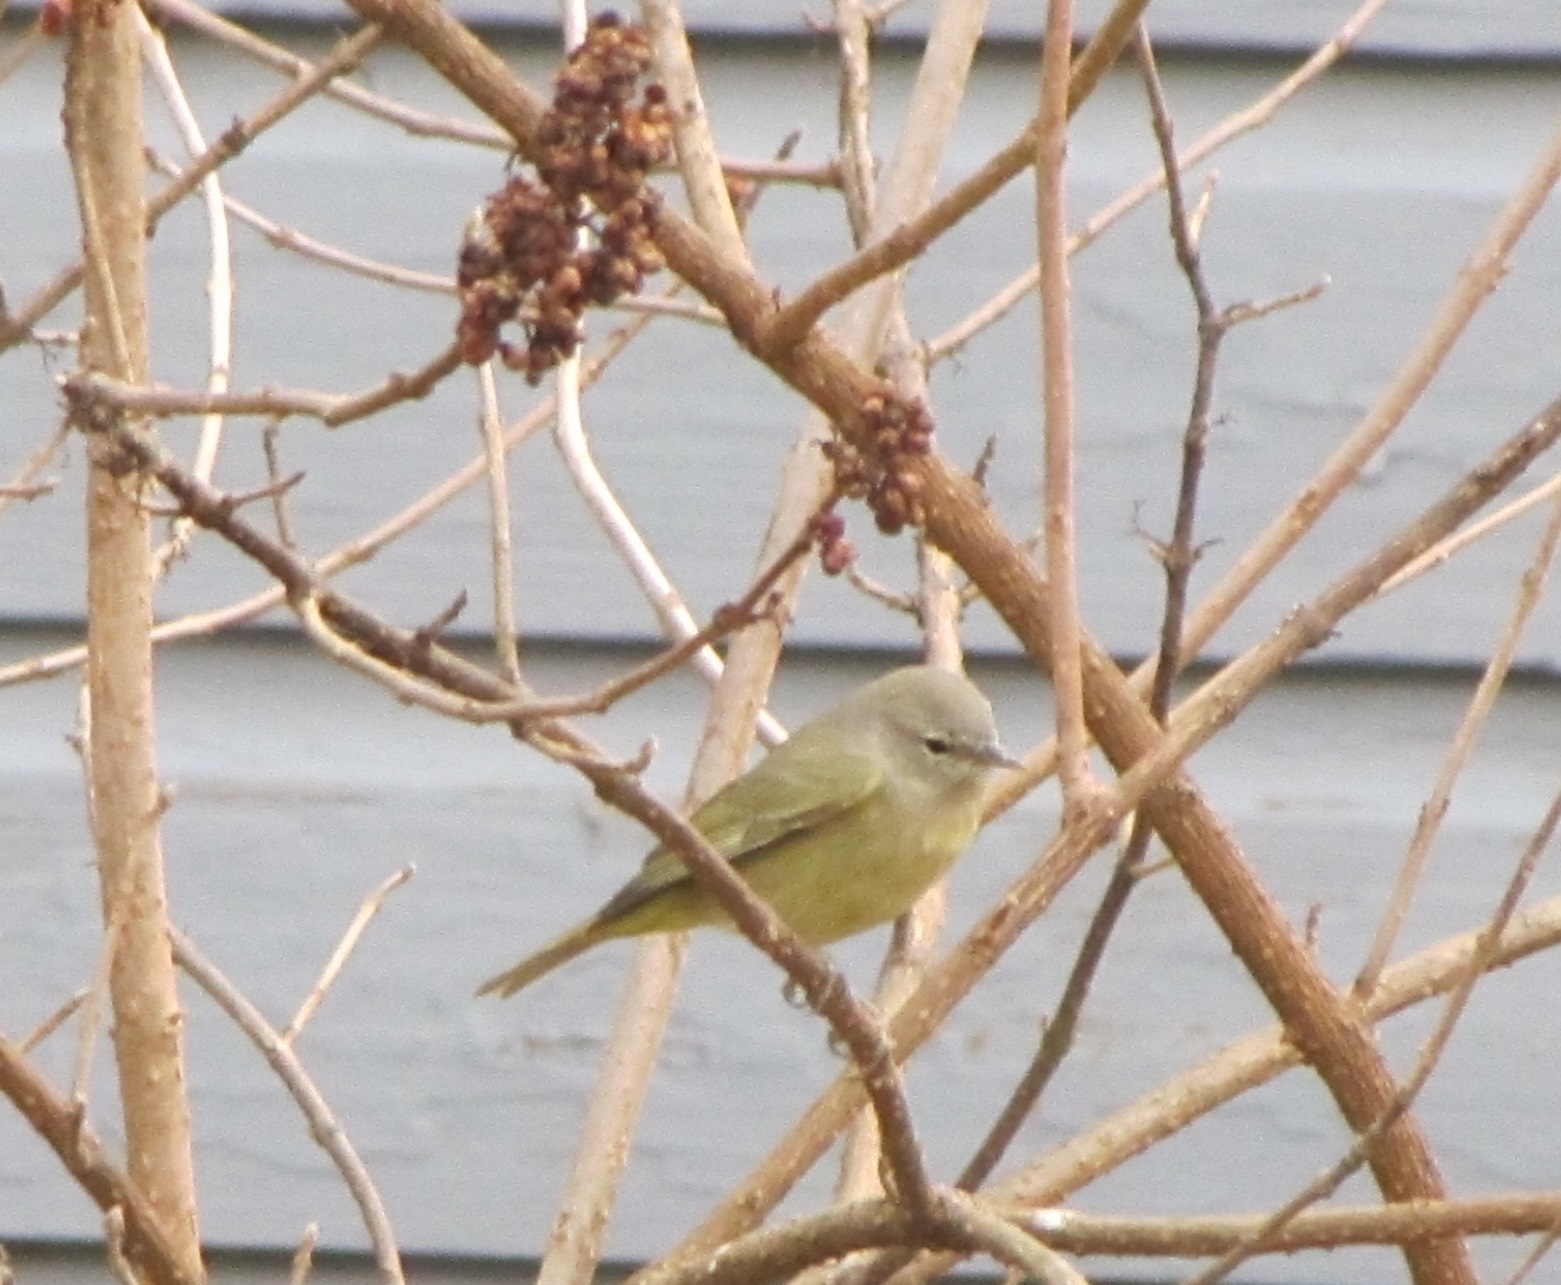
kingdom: Animalia
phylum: Chordata
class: Aves
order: Passeriformes
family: Parulidae
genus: Leiothlypis
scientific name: Leiothlypis celata
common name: Orange-crowned warbler
